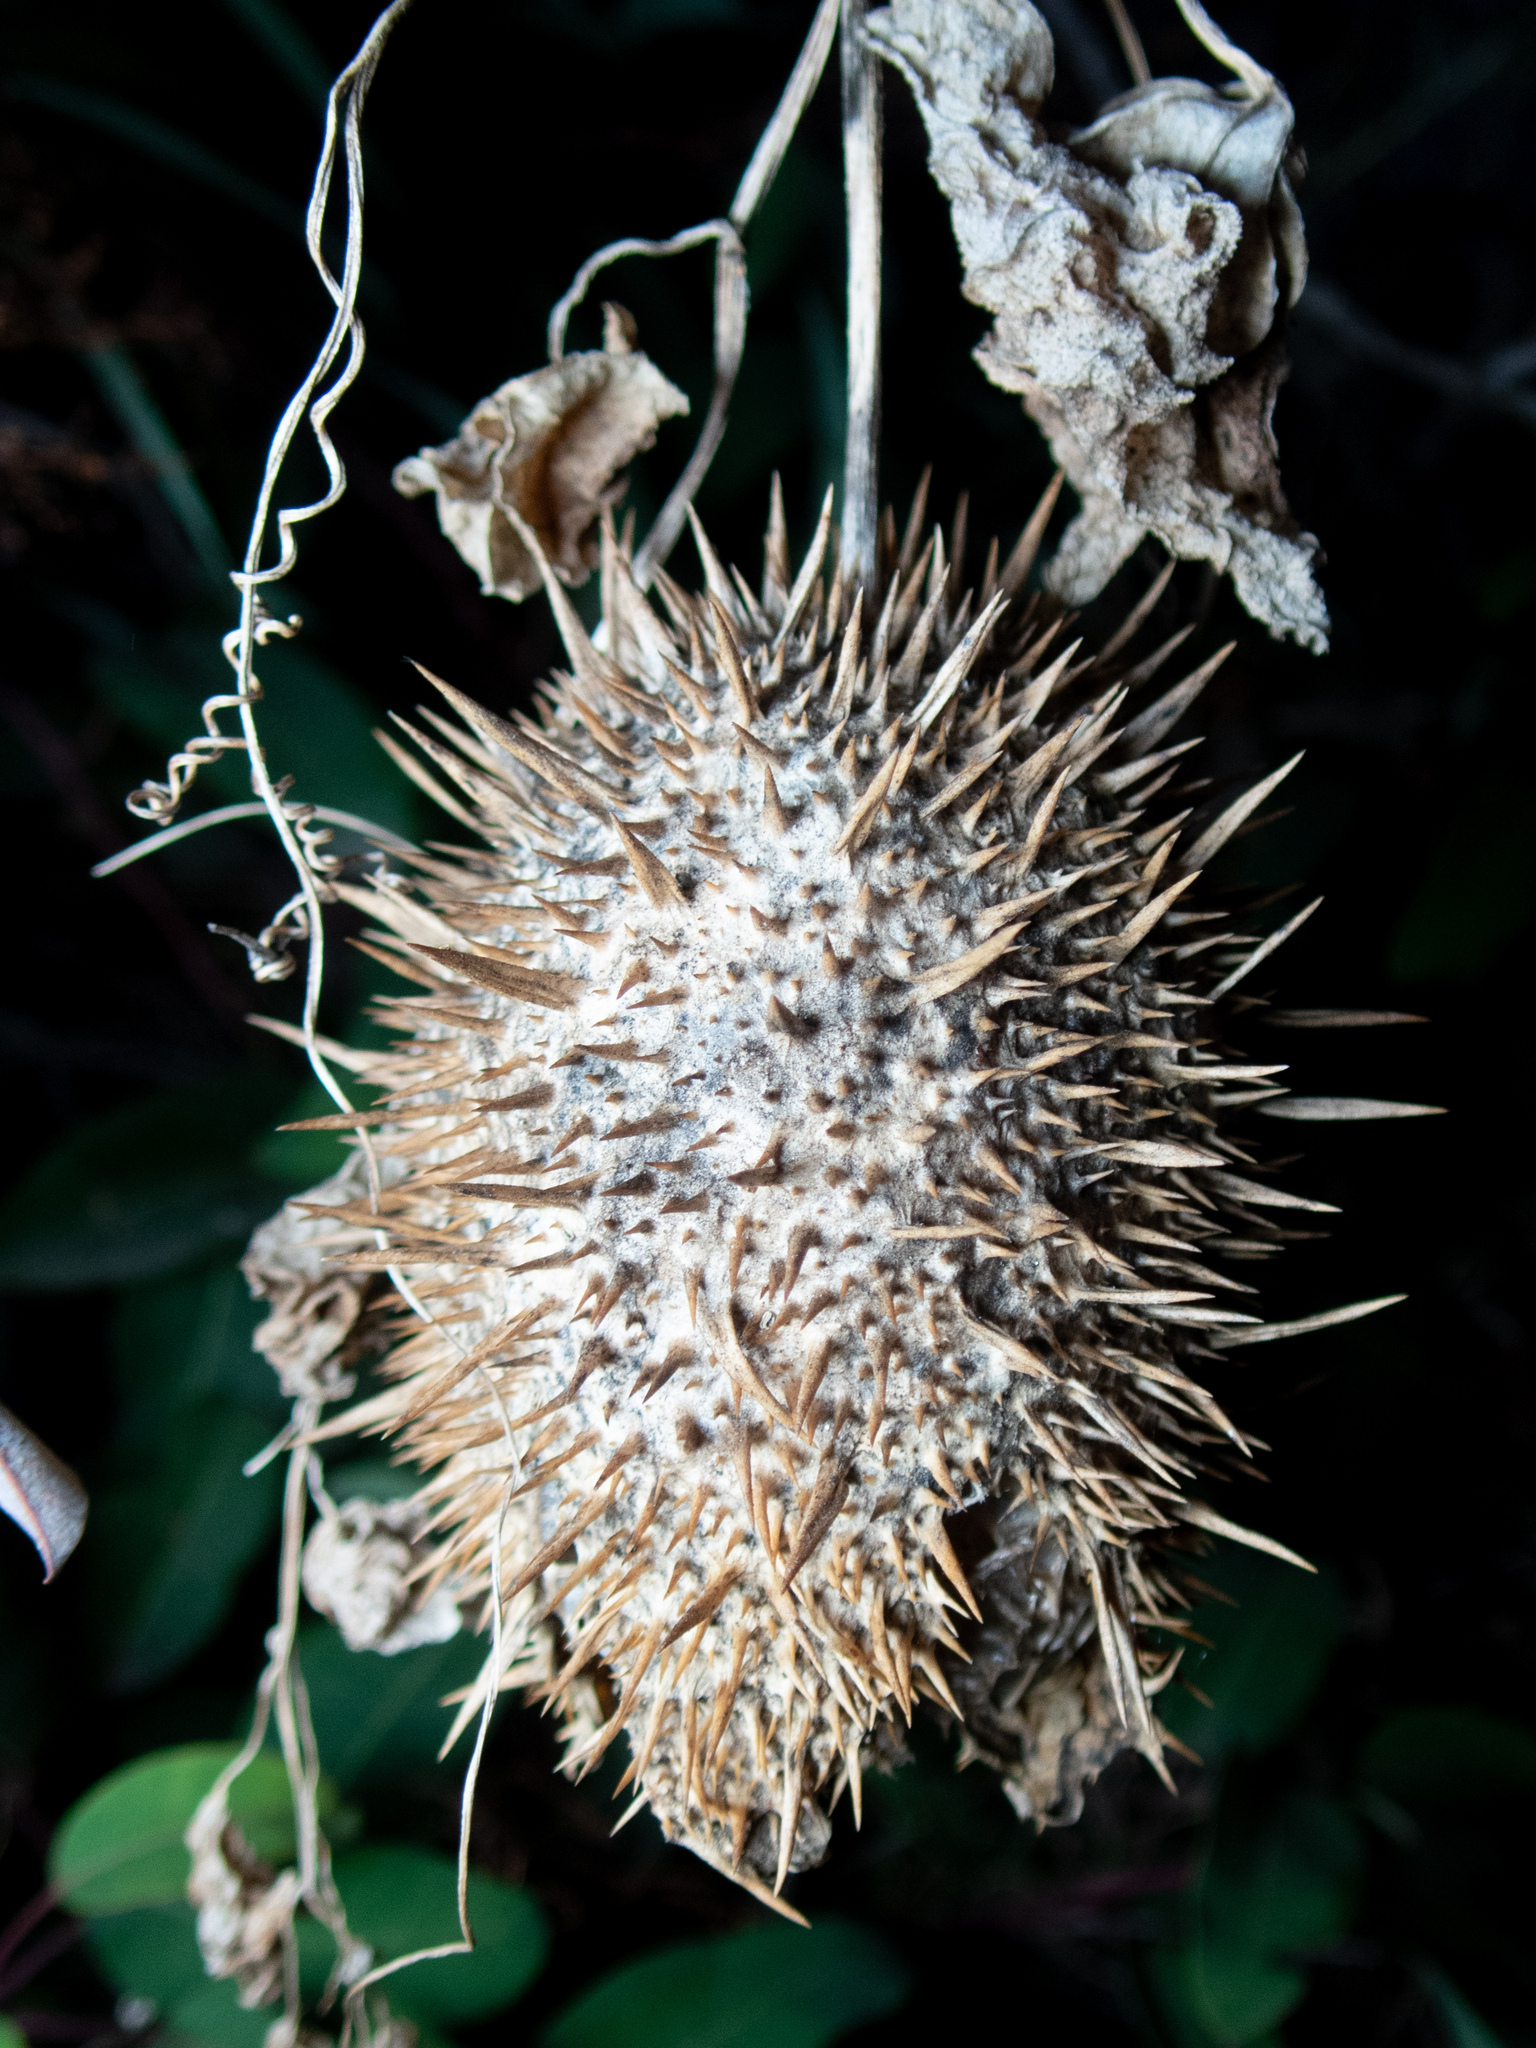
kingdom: Plantae
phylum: Tracheophyta
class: Magnoliopsida
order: Cucurbitales
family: Cucurbitaceae
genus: Marah
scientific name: Marah macrocarpa
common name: Cucamonga manroot
